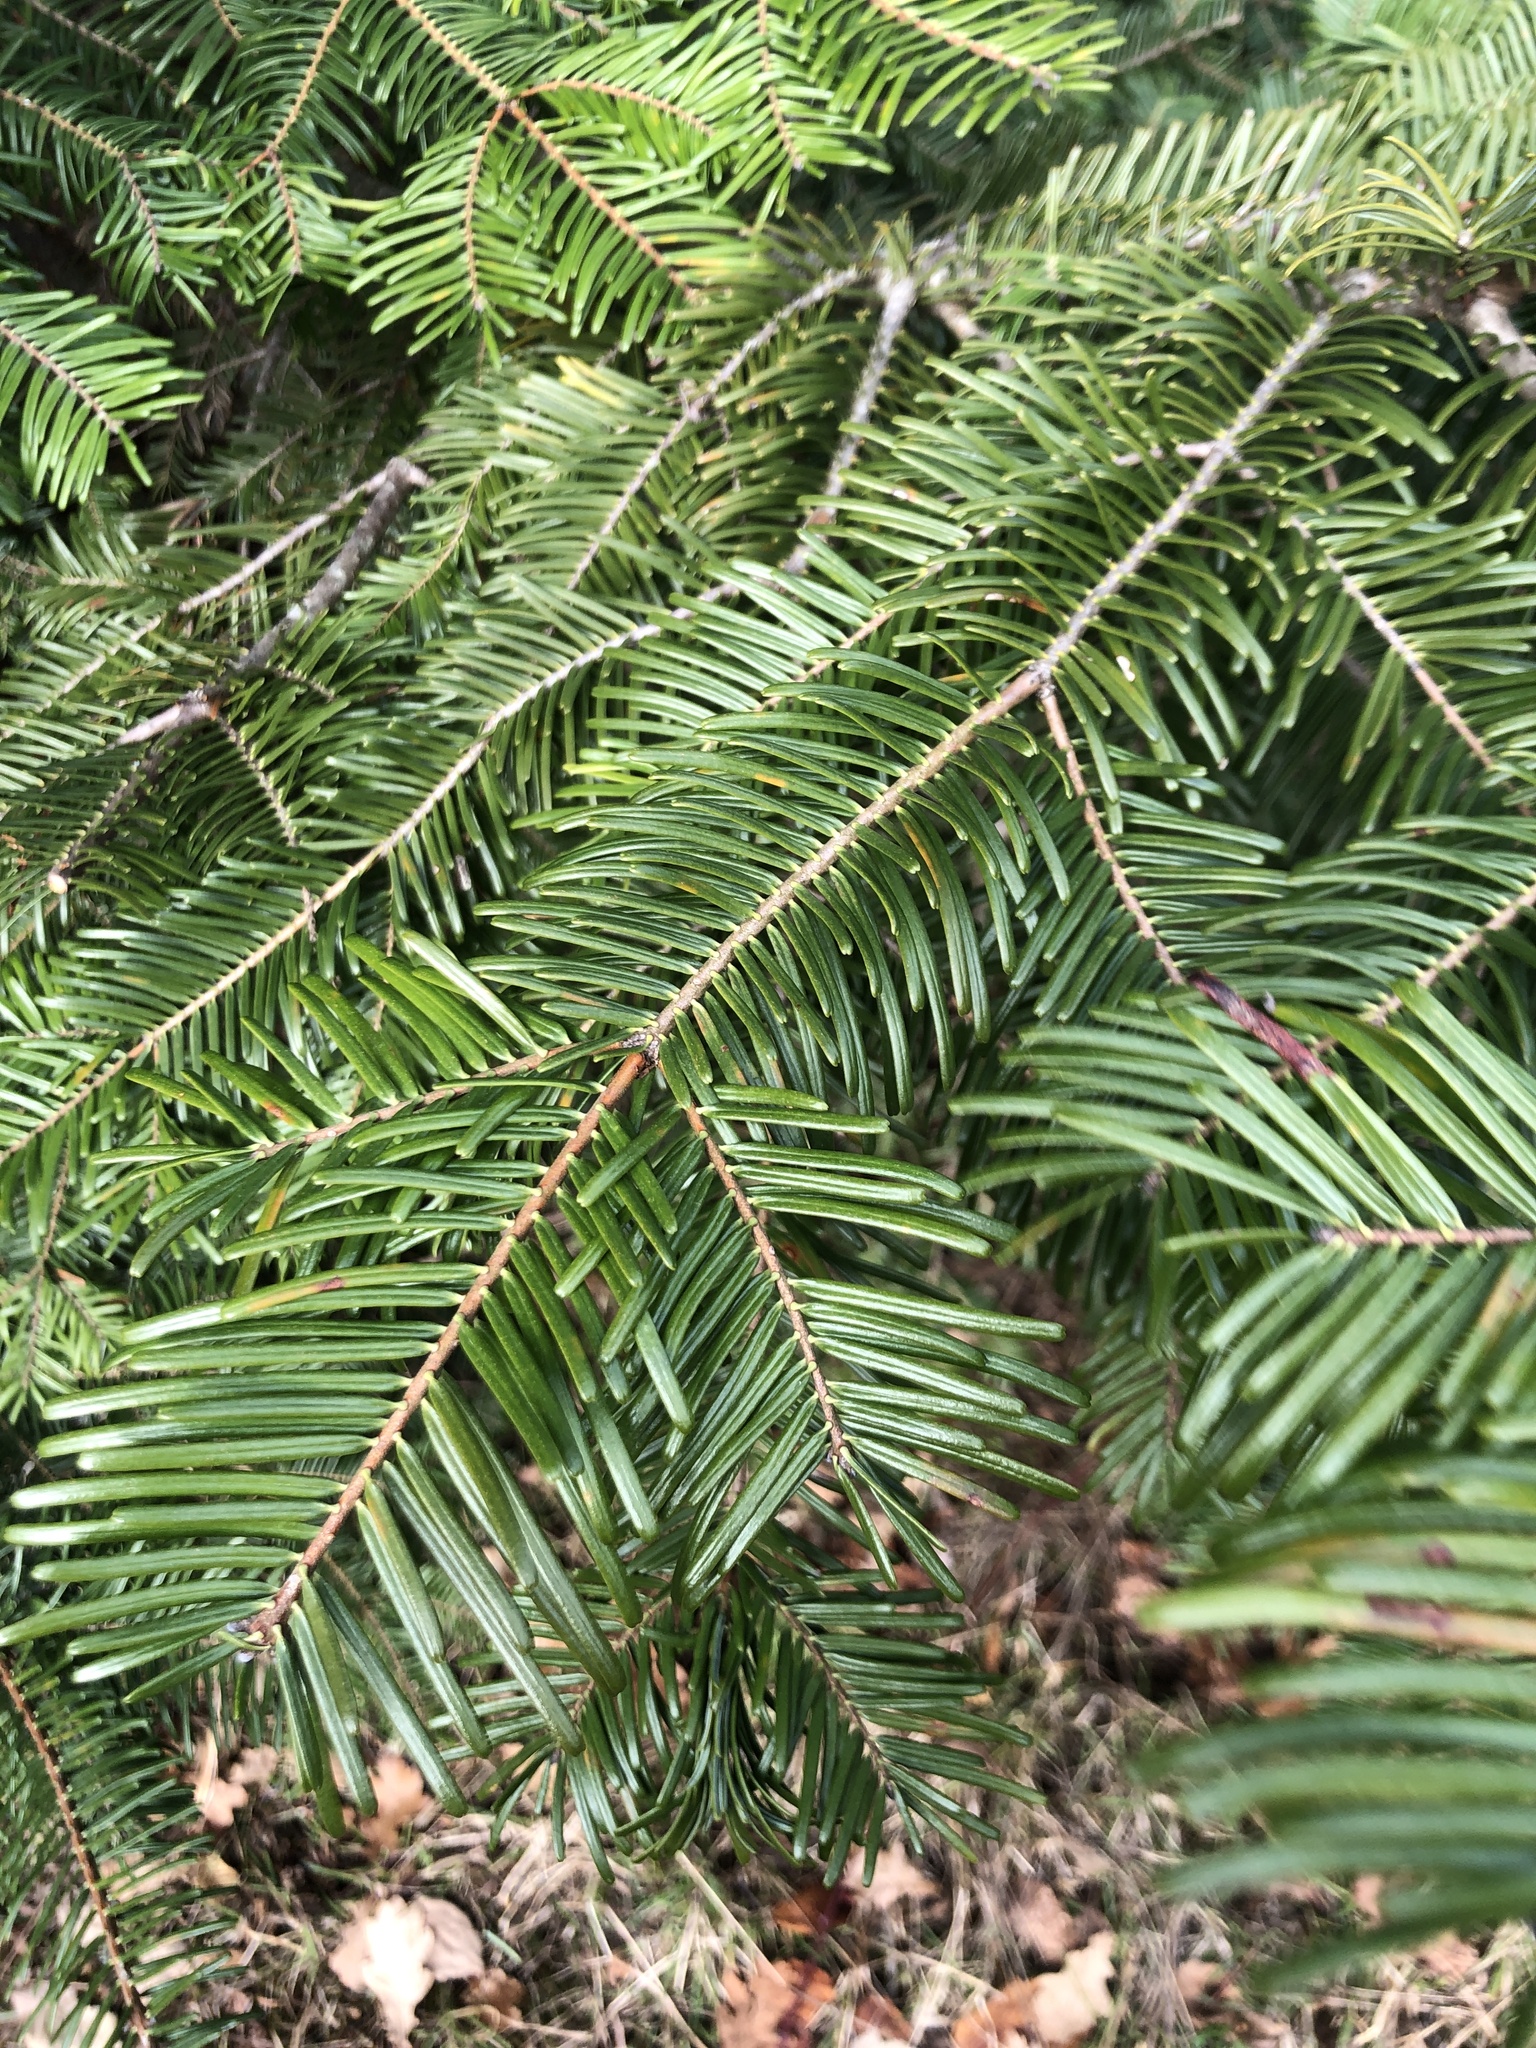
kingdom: Plantae
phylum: Tracheophyta
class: Pinopsida
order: Pinales
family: Pinaceae
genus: Abies
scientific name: Abies grandis
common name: Giant fir
